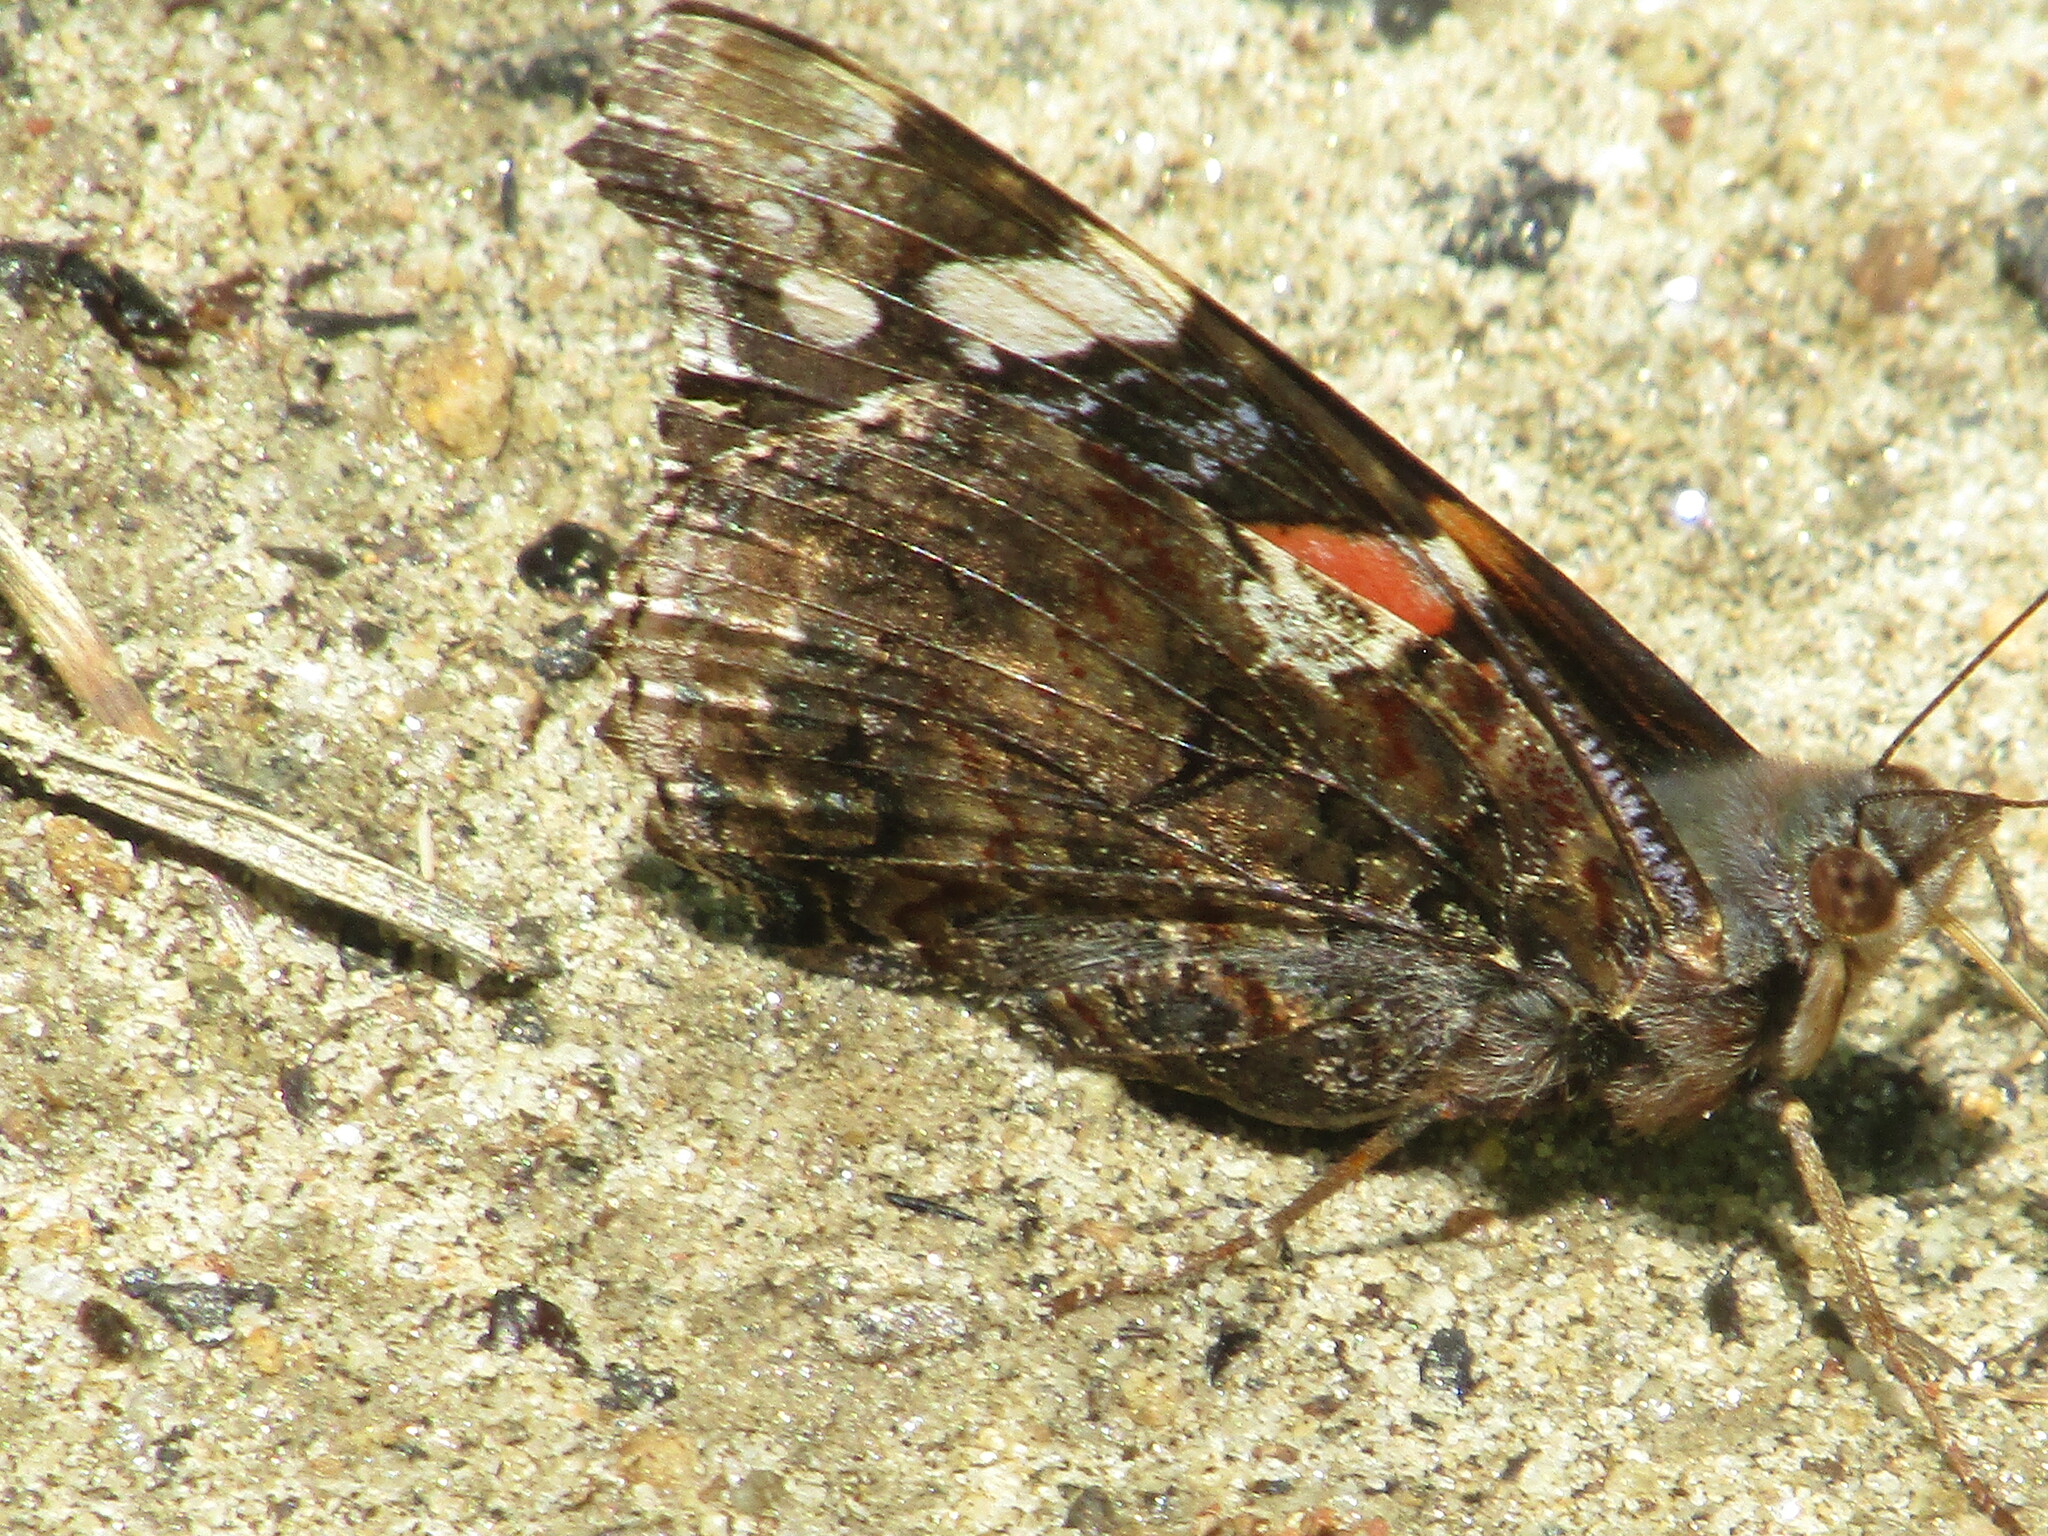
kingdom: Animalia
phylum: Arthropoda
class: Insecta
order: Lepidoptera
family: Nymphalidae
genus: Vanessa
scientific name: Vanessa atalanta
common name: Red admiral
